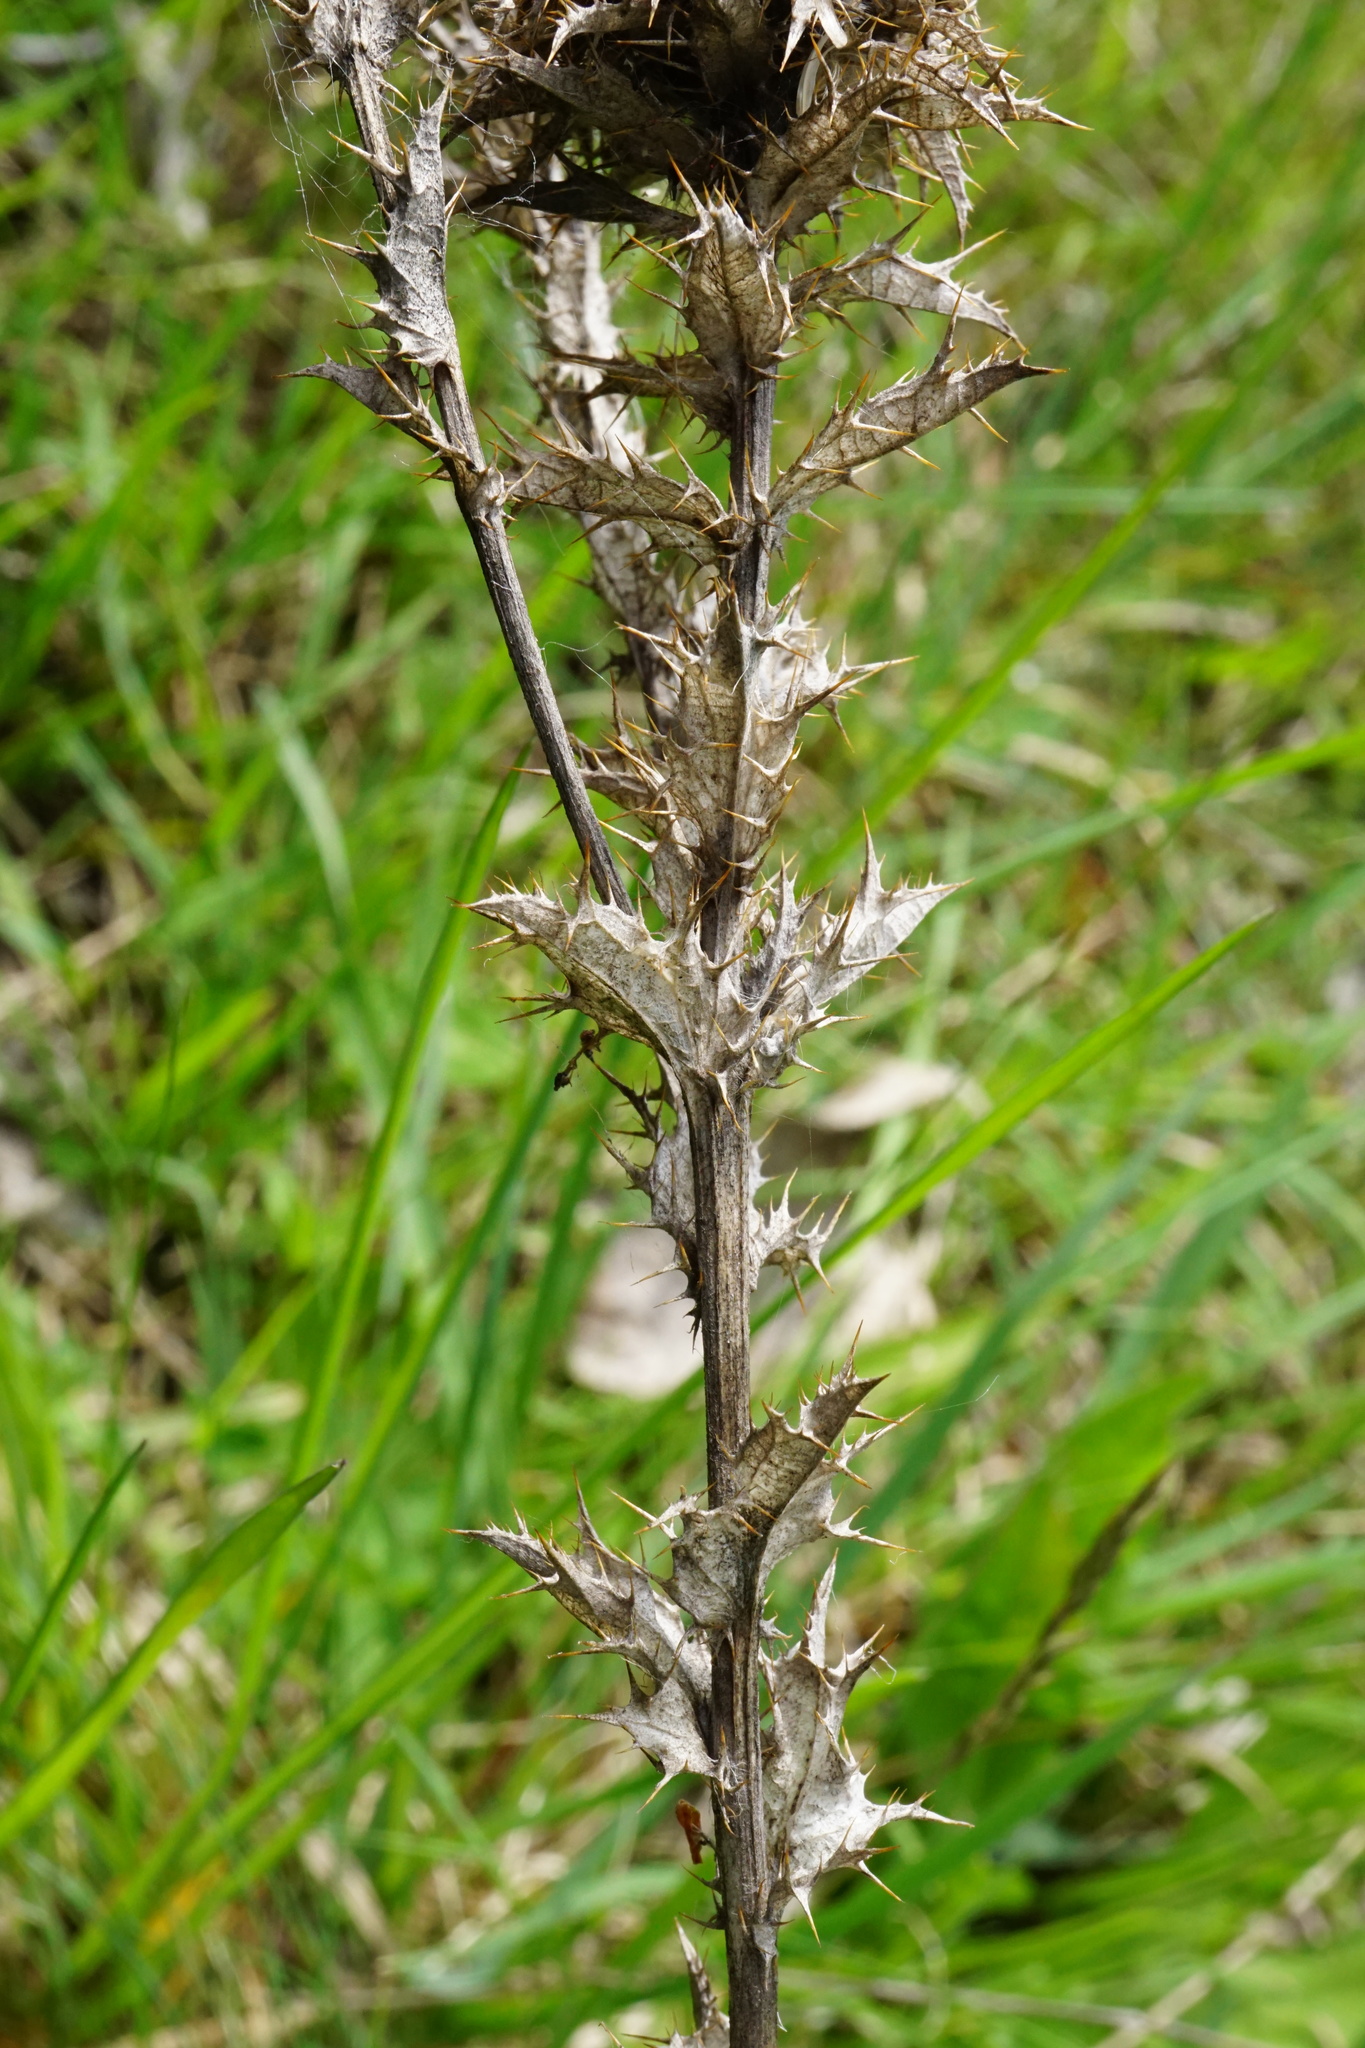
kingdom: Plantae
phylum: Tracheophyta
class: Magnoliopsida
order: Asterales
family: Asteraceae
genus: Carlina
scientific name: Carlina vulgaris
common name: Carline thistle
